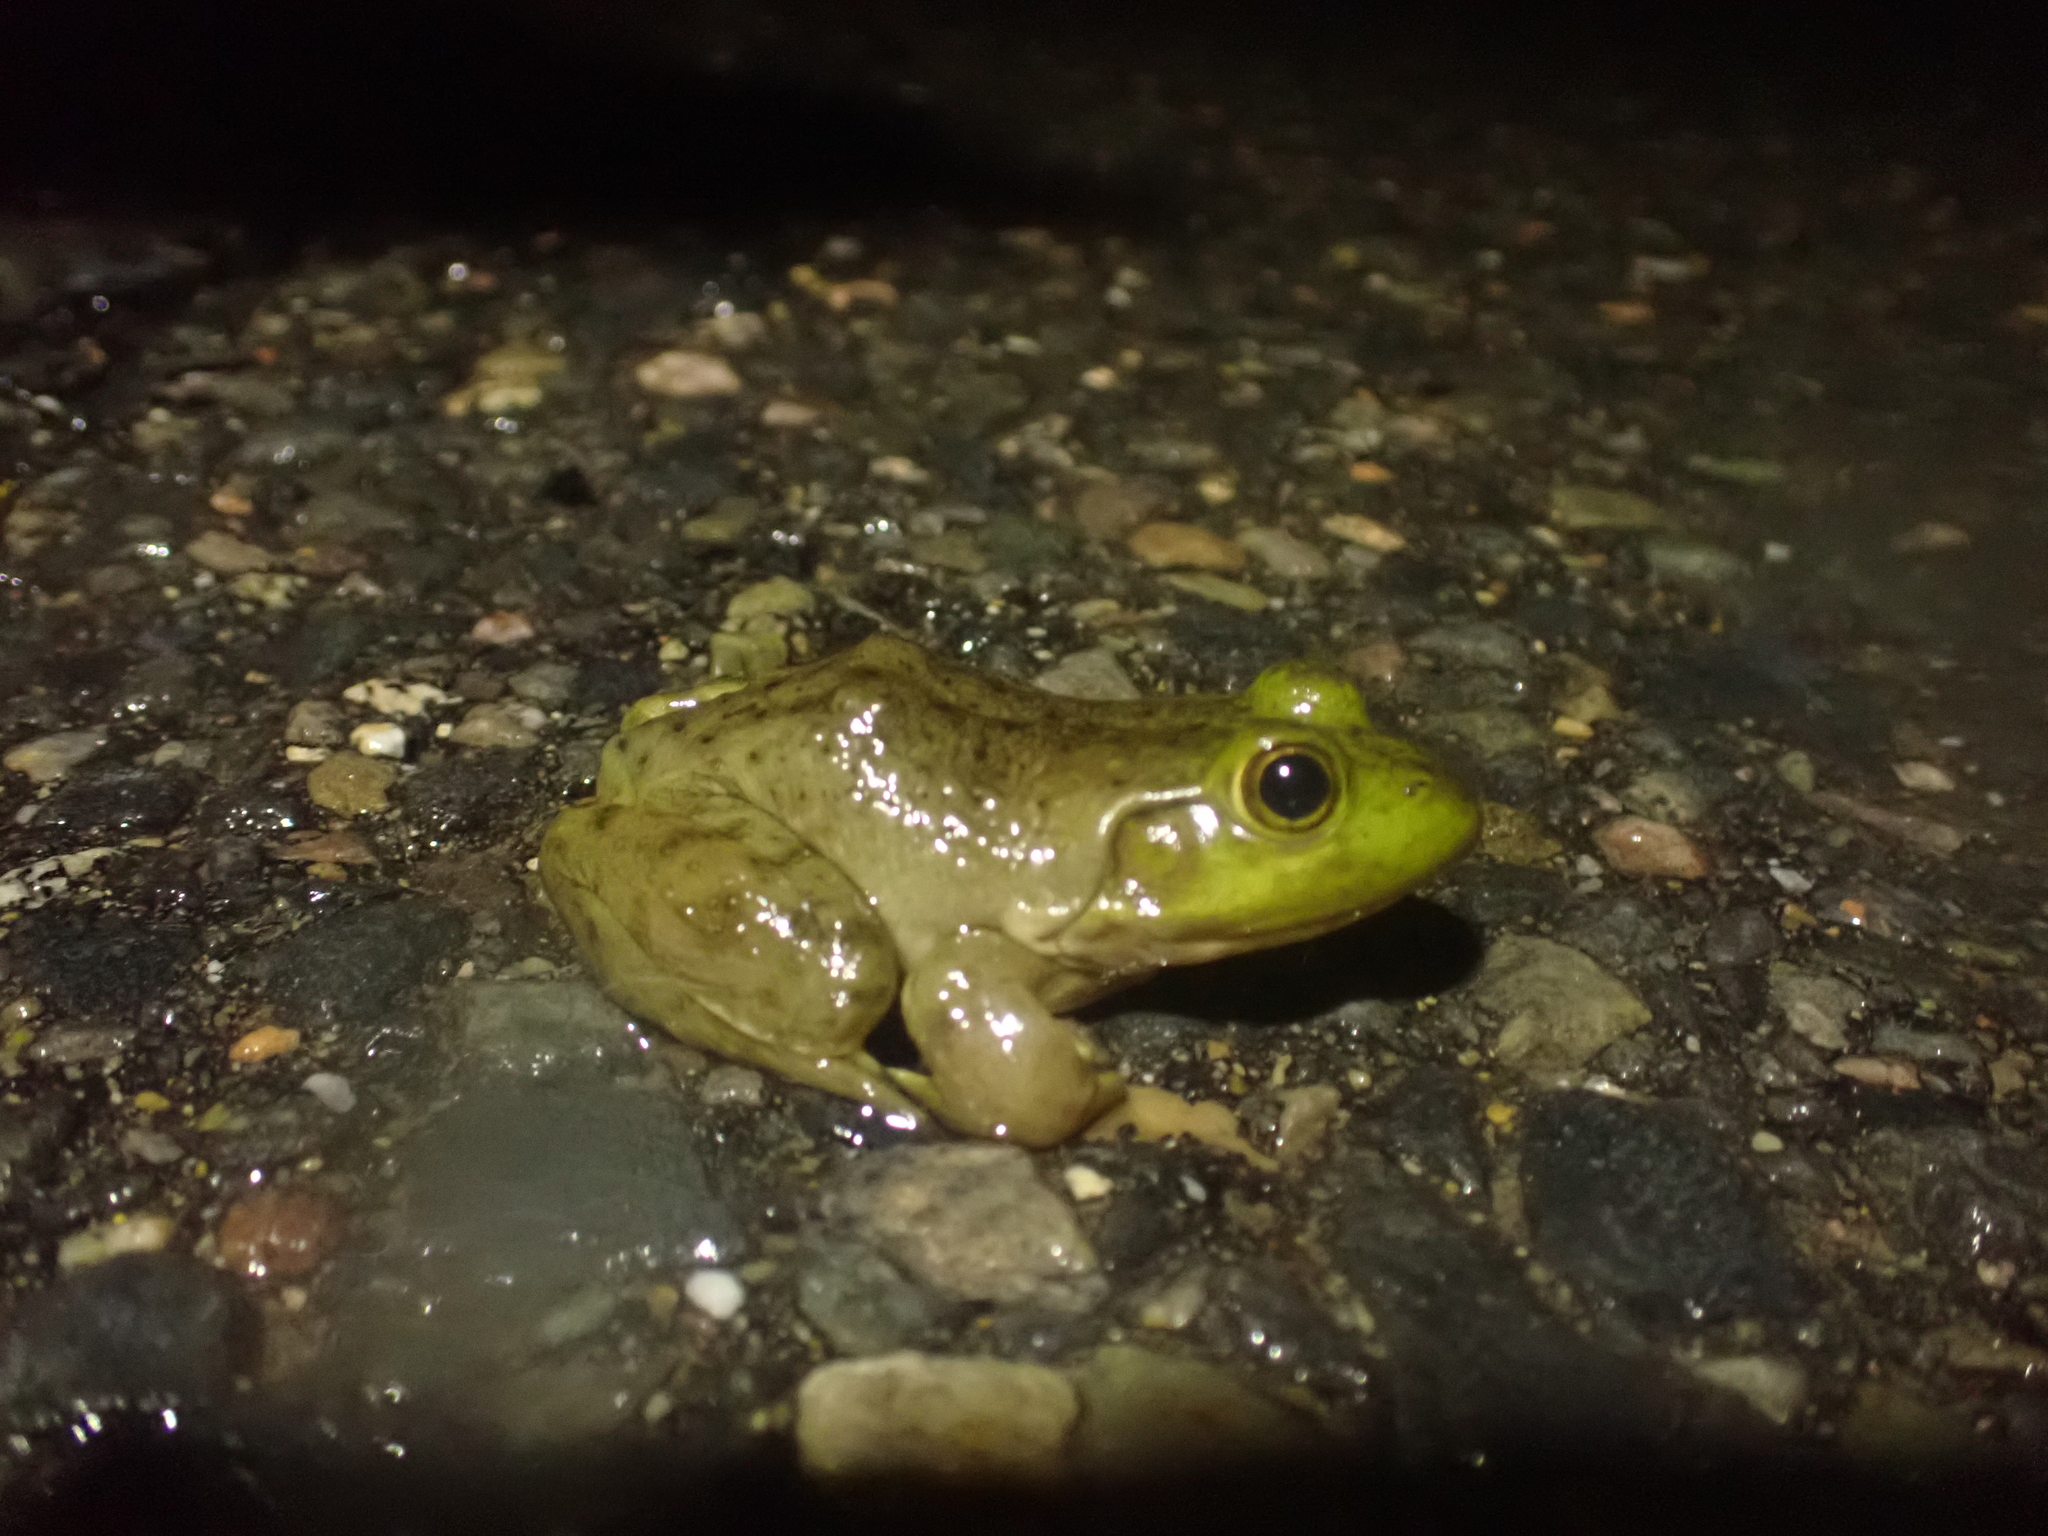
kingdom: Animalia
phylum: Chordata
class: Amphibia
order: Anura
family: Ranidae
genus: Lithobates
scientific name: Lithobates catesbeianus
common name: American bullfrog
